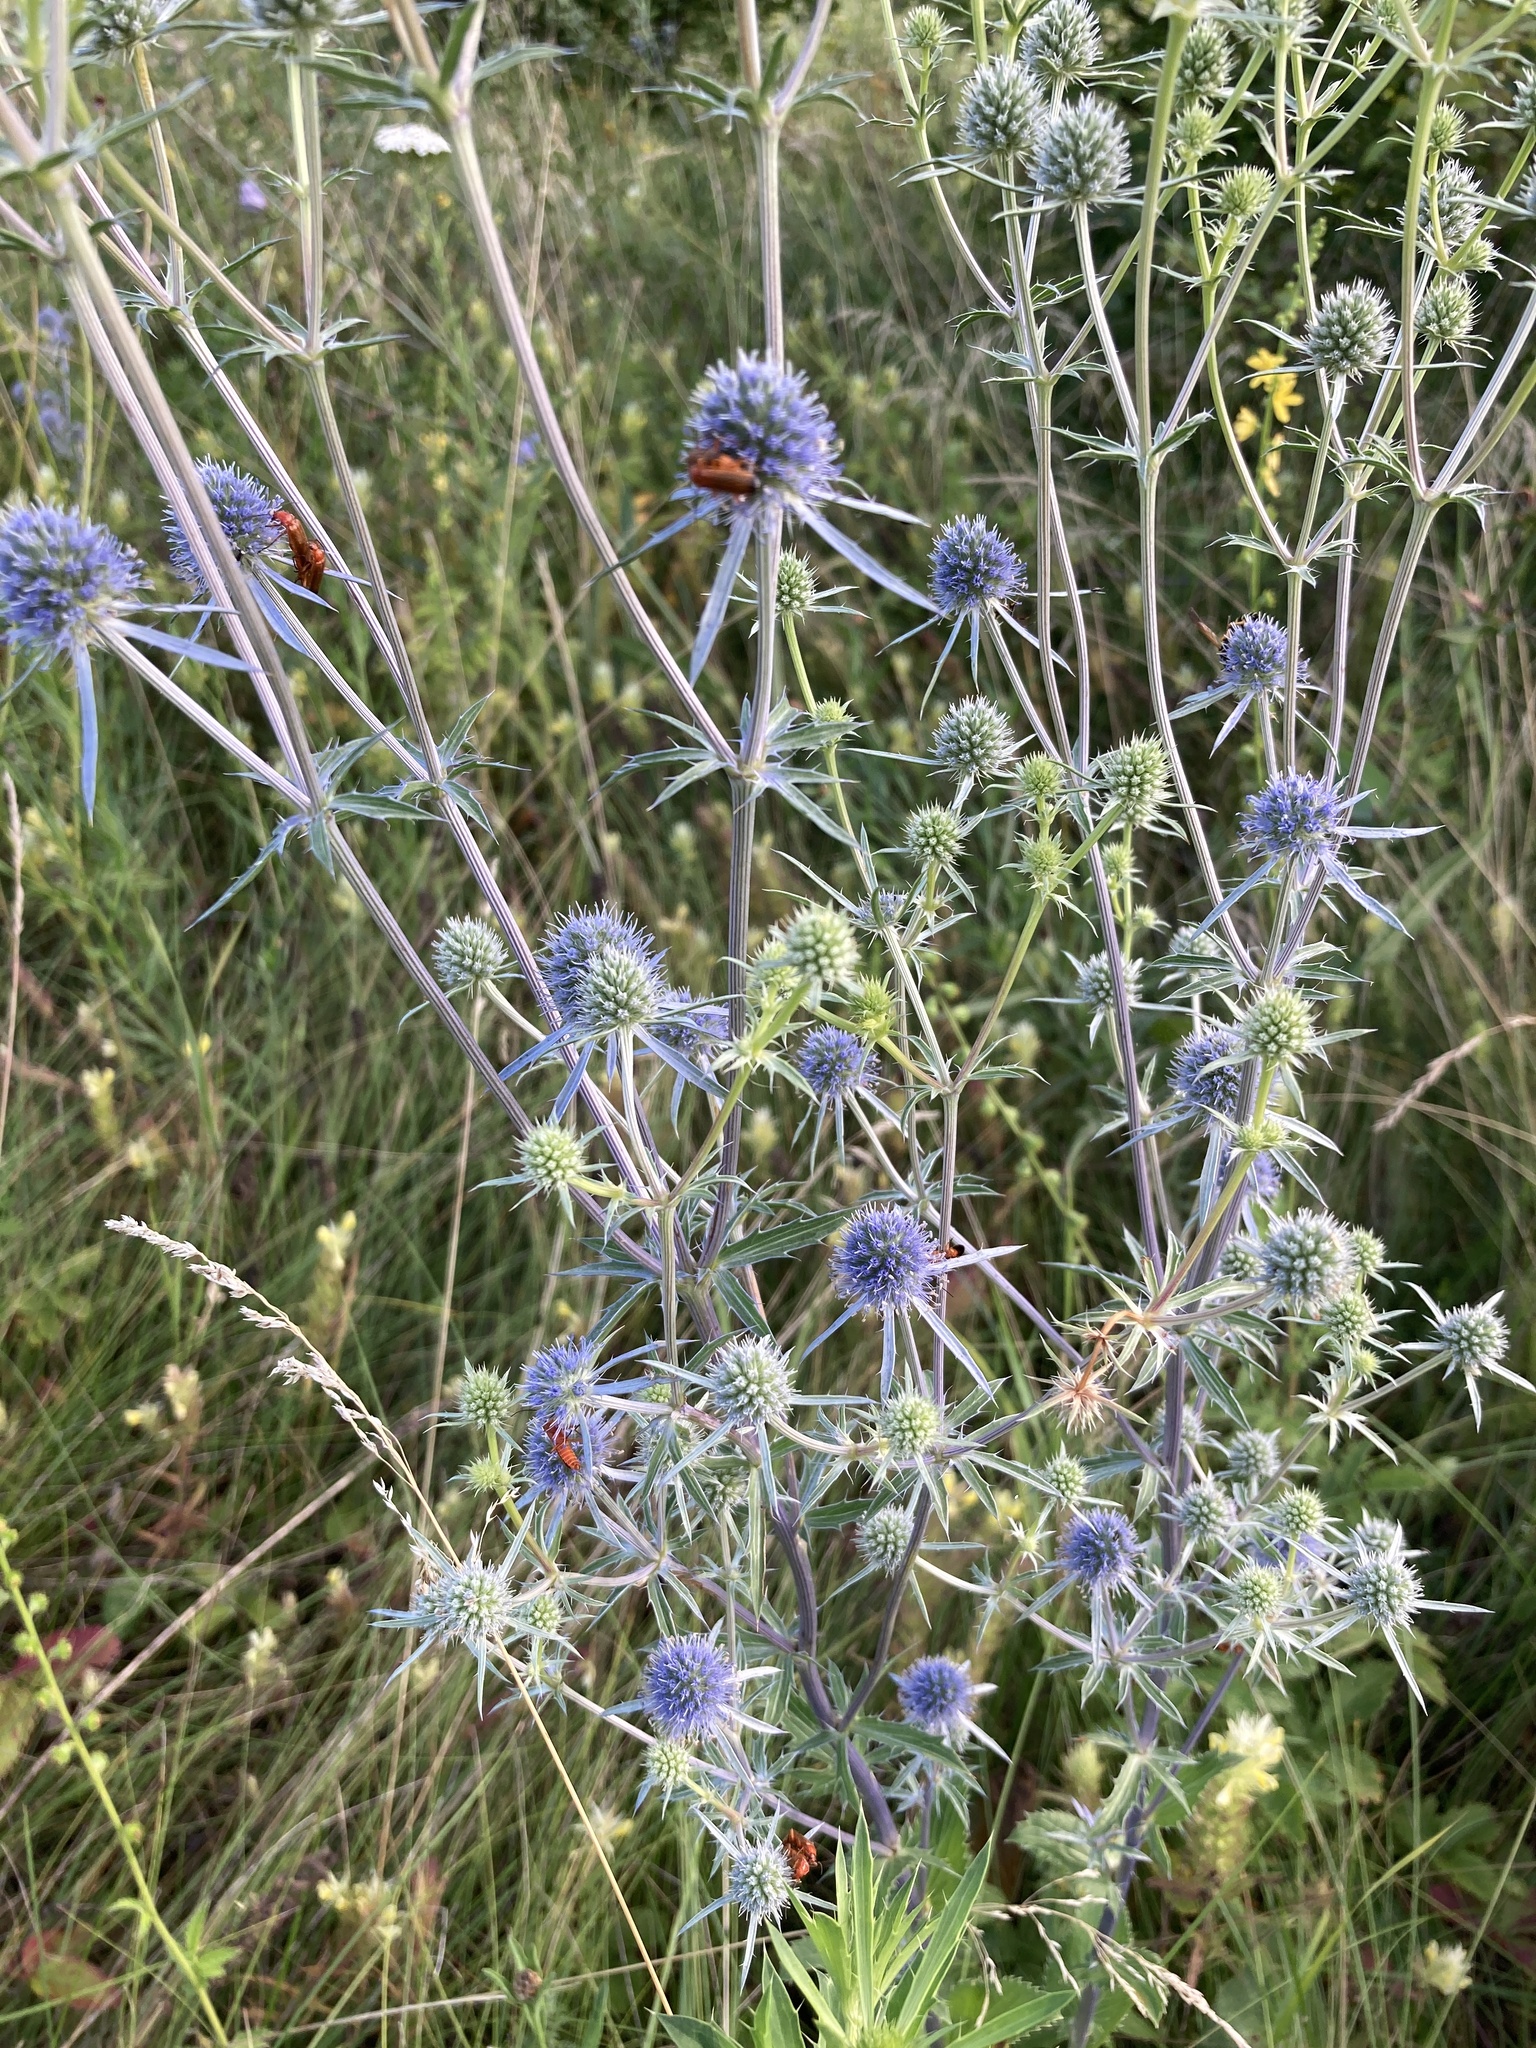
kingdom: Plantae
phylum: Tracheophyta
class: Magnoliopsida
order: Apiales
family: Apiaceae
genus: Eryngium
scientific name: Eryngium planum
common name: Blue eryngo
